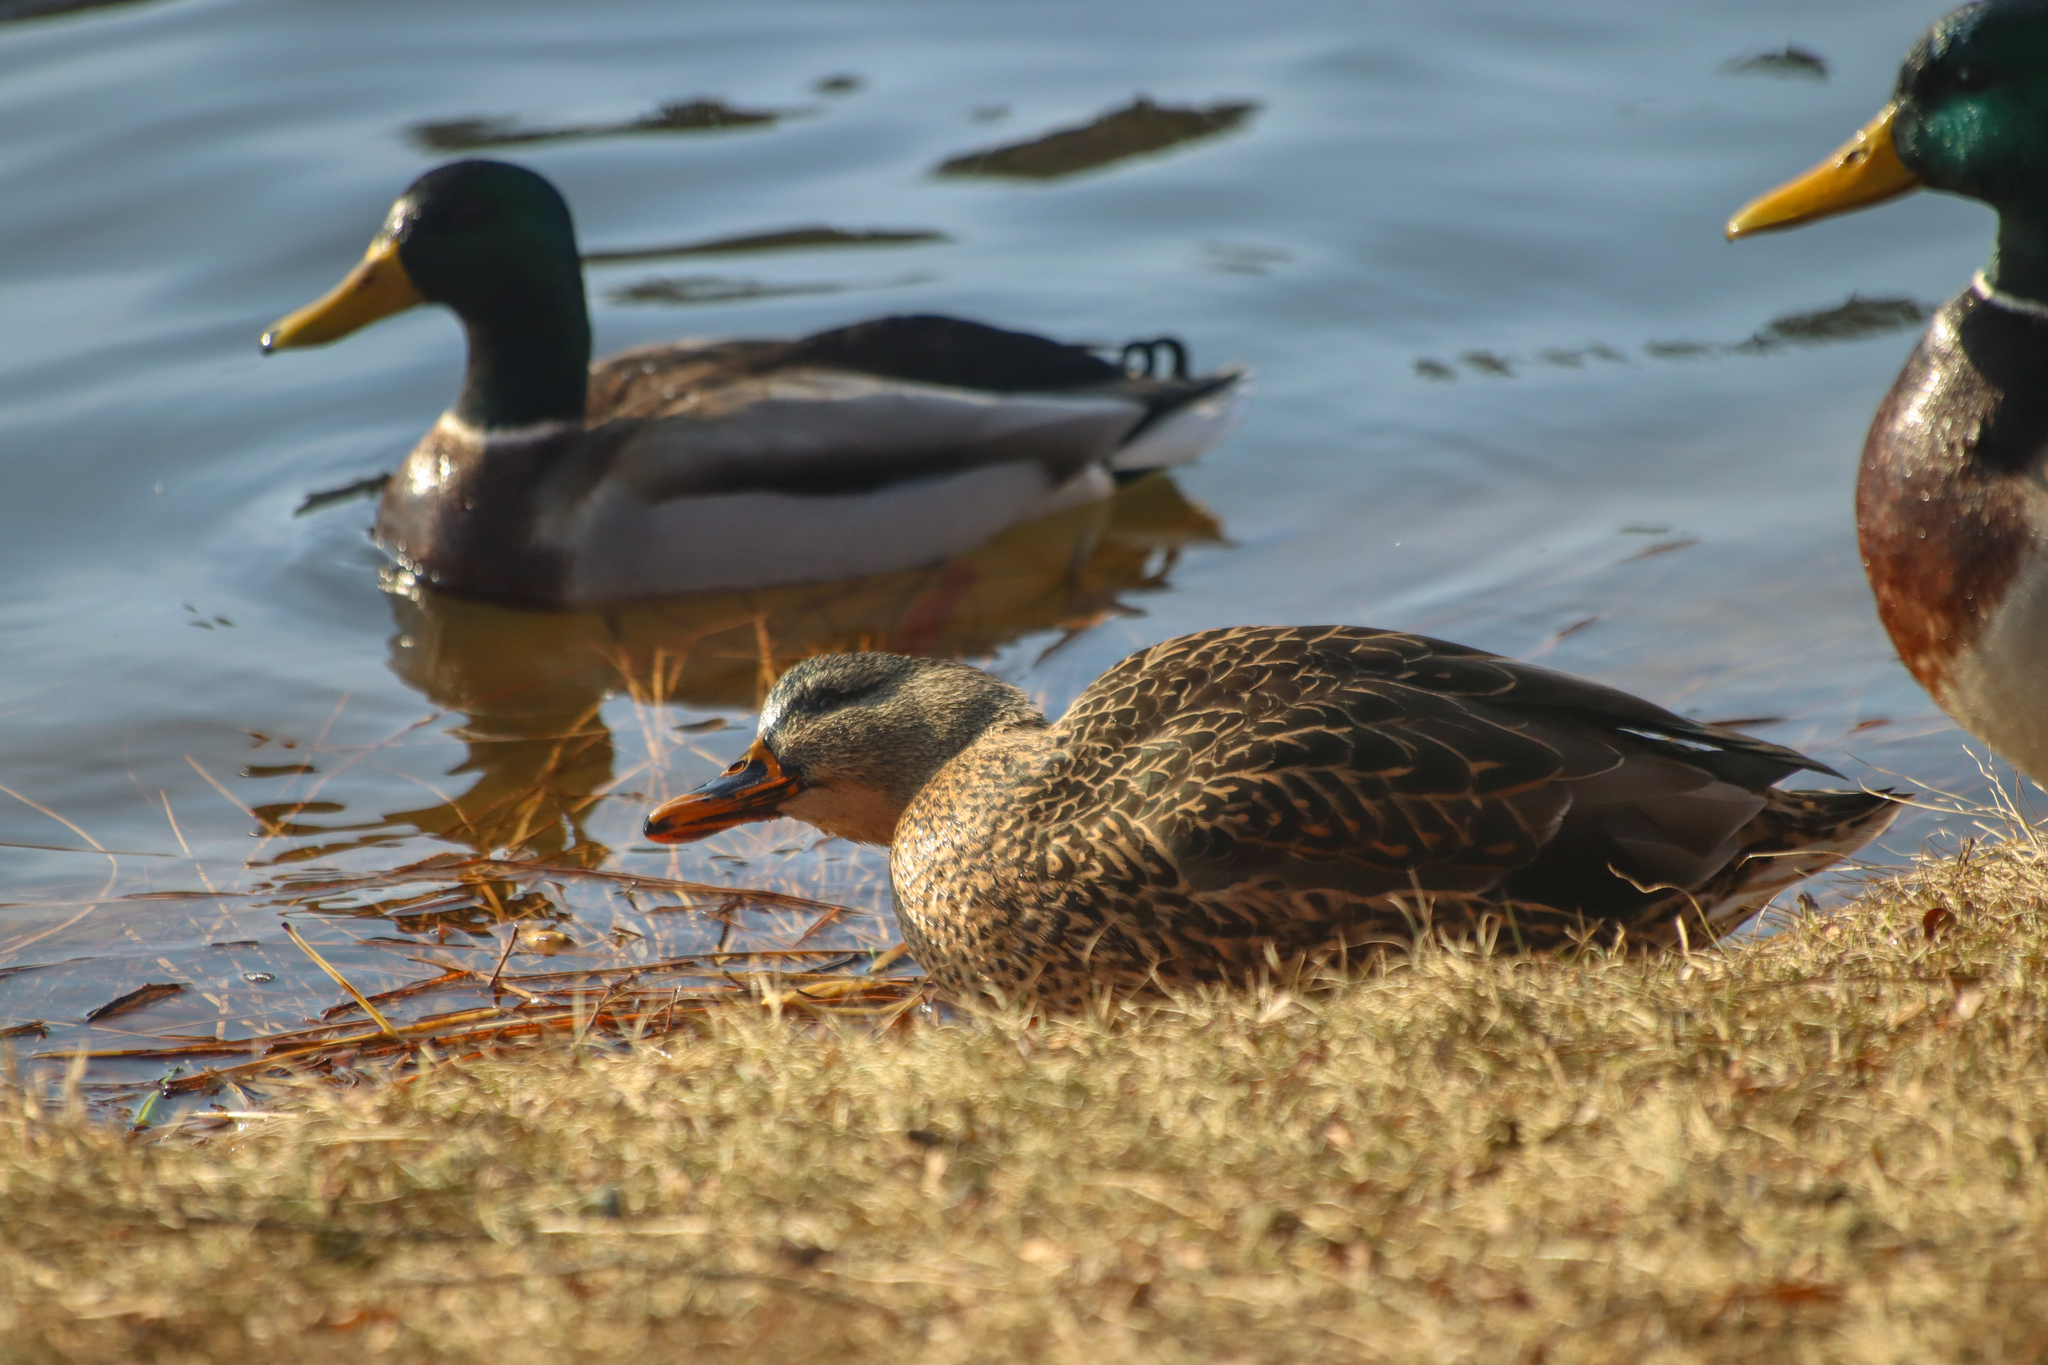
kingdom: Animalia
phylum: Chordata
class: Aves
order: Anseriformes
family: Anatidae
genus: Anas
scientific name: Anas platyrhynchos
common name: Mallard
